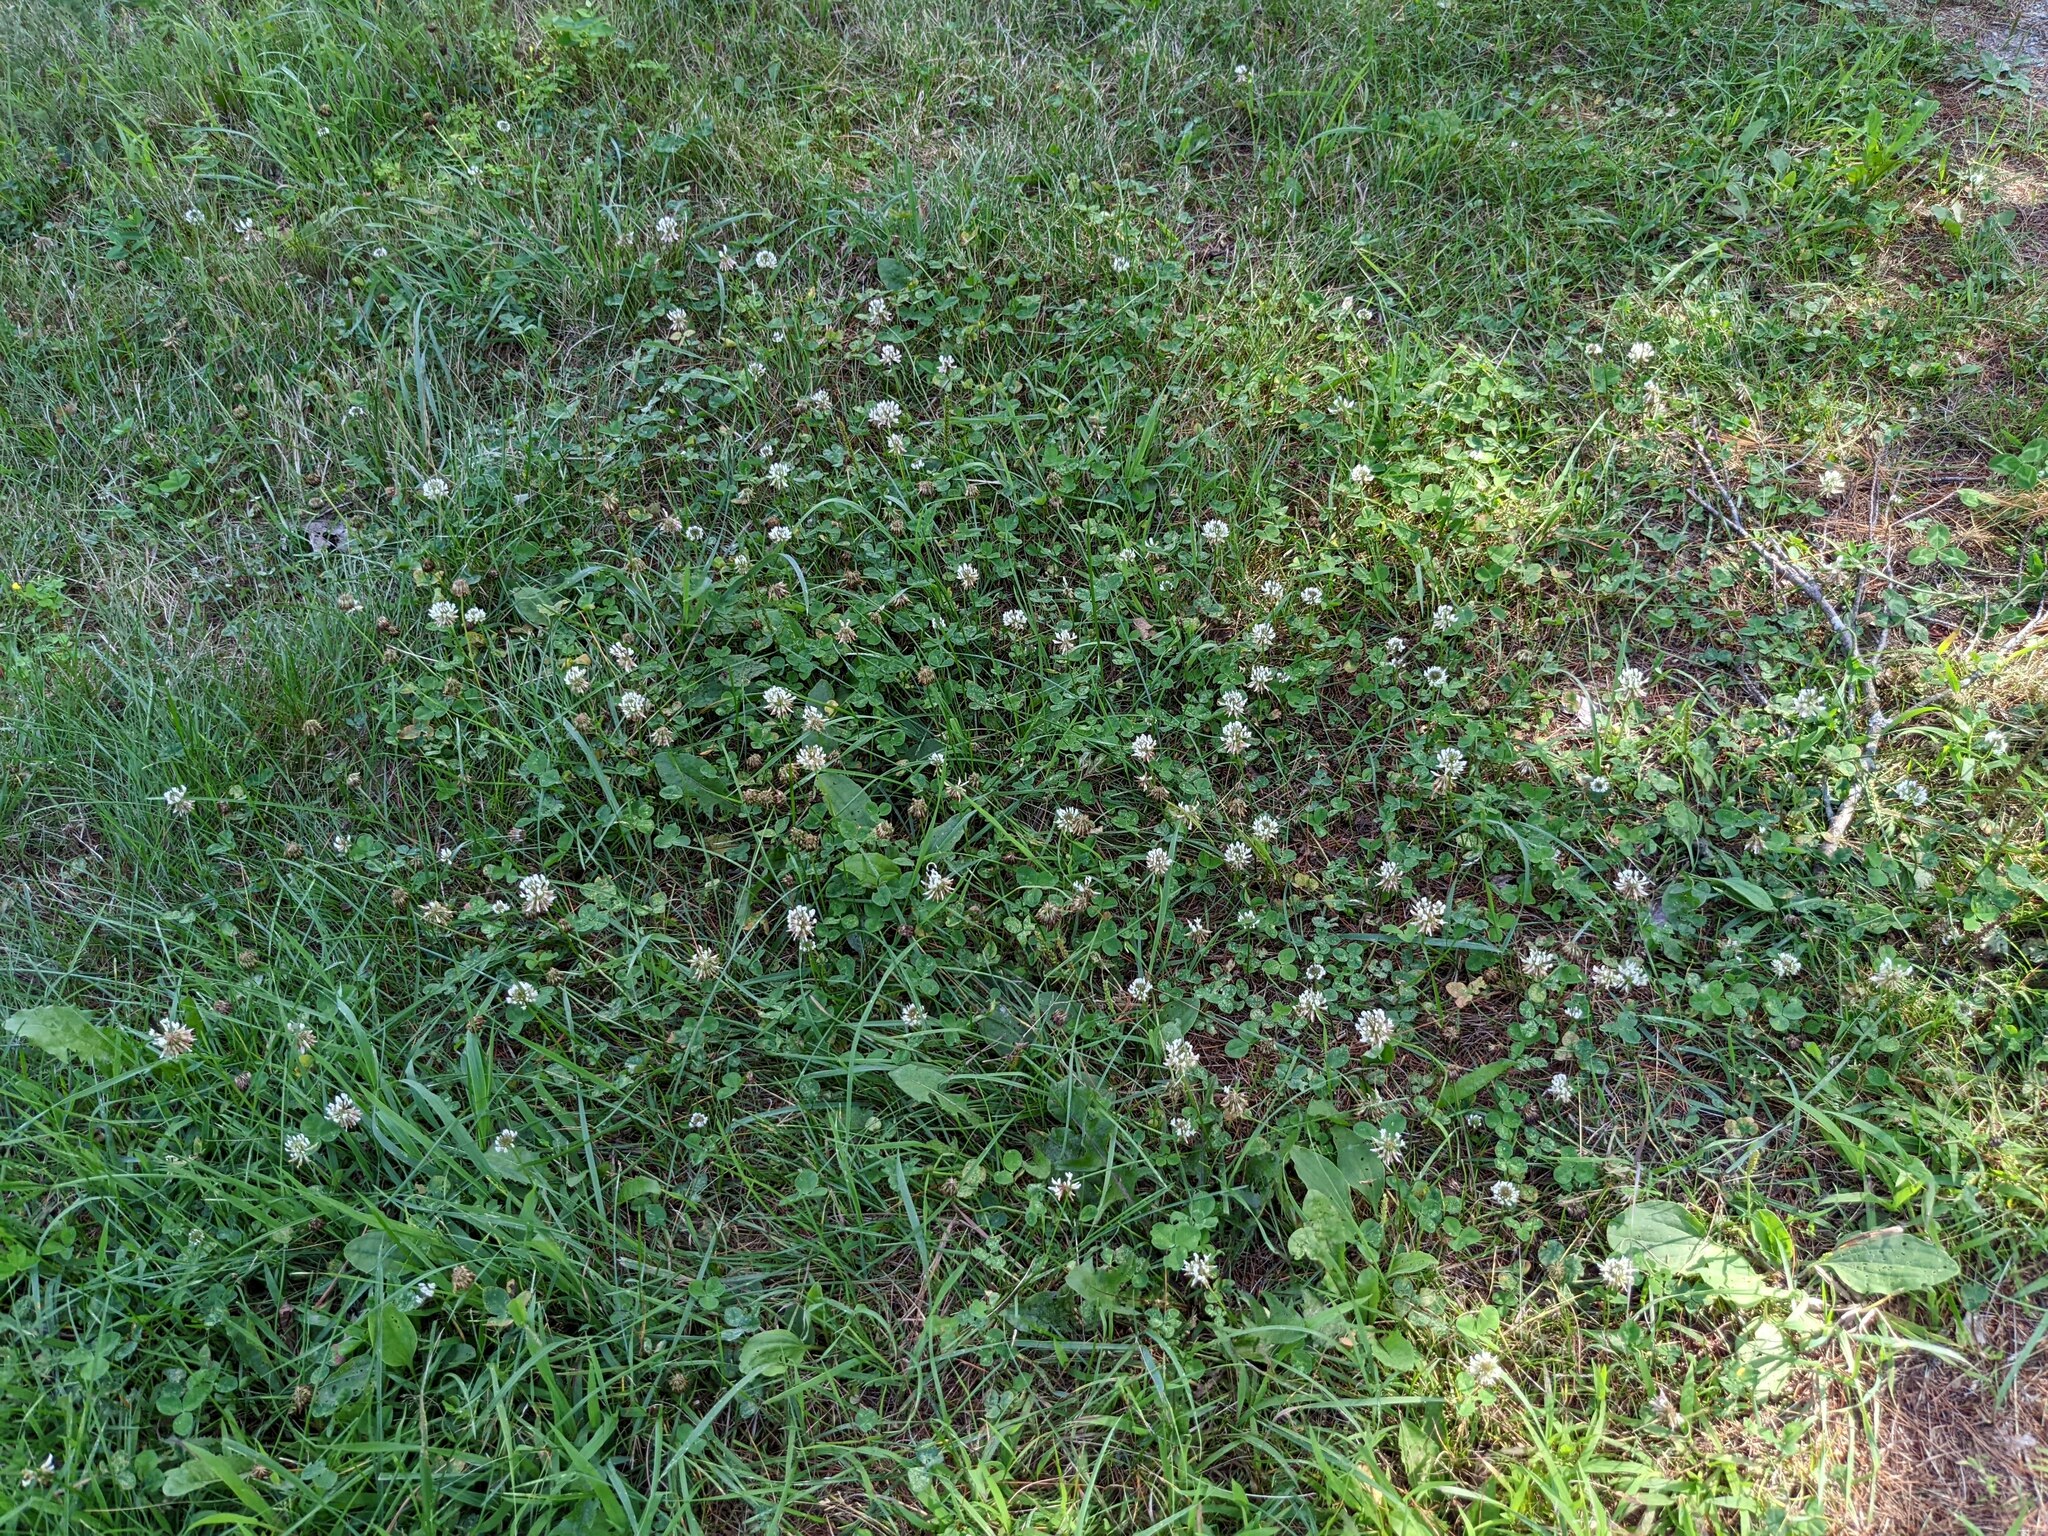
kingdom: Plantae
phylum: Tracheophyta
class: Magnoliopsida
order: Fabales
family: Fabaceae
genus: Trifolium
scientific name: Trifolium repens
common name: White clover
